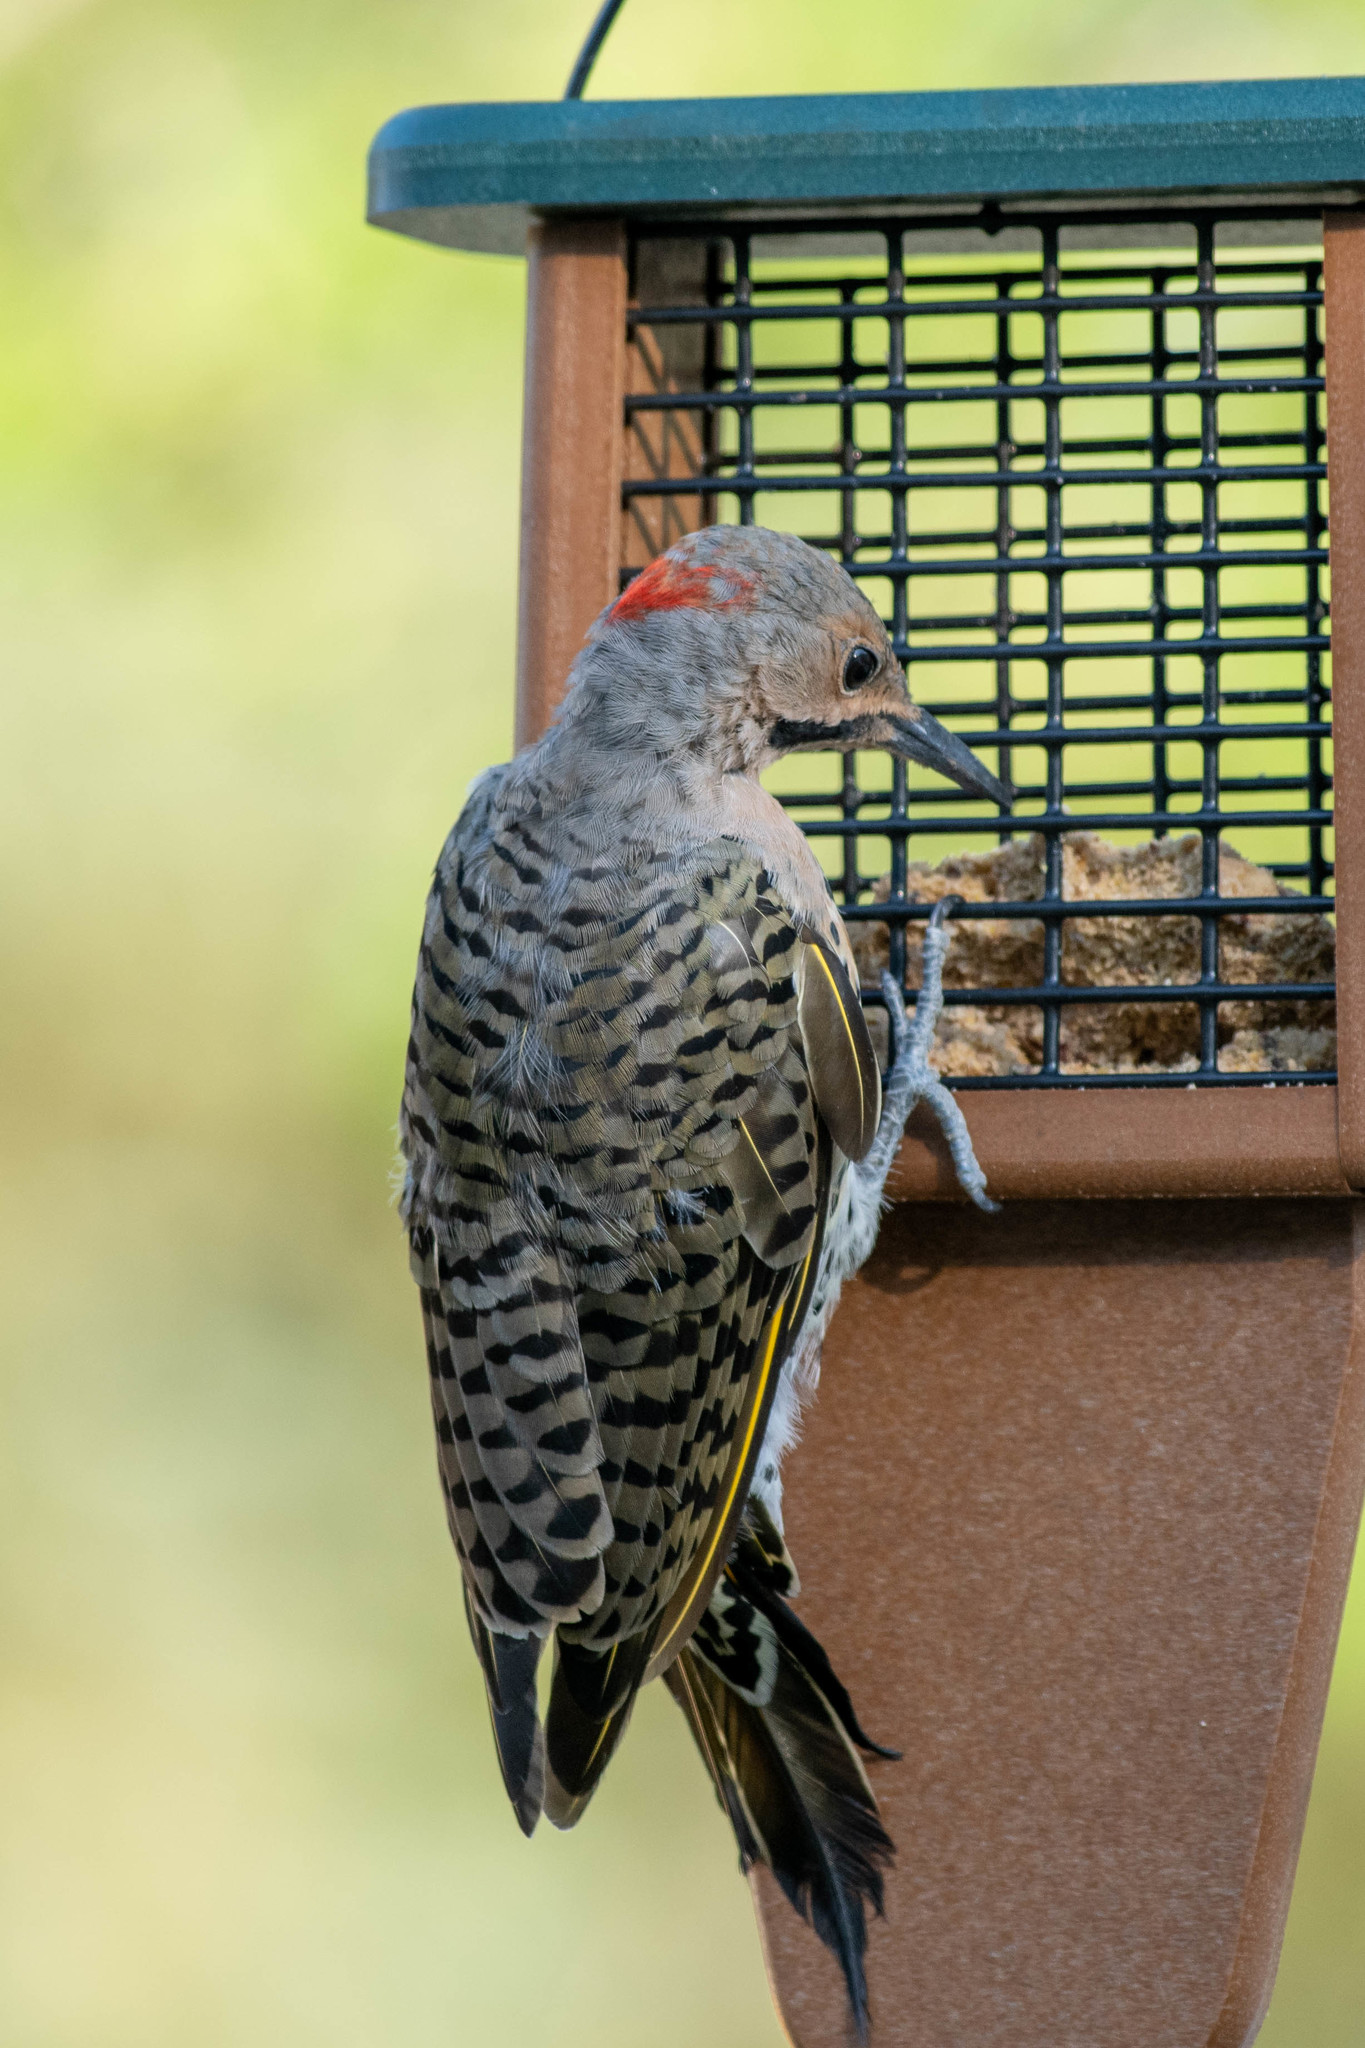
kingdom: Animalia
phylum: Chordata
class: Aves
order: Piciformes
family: Picidae
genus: Colaptes
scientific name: Colaptes auratus
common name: Northern flicker
